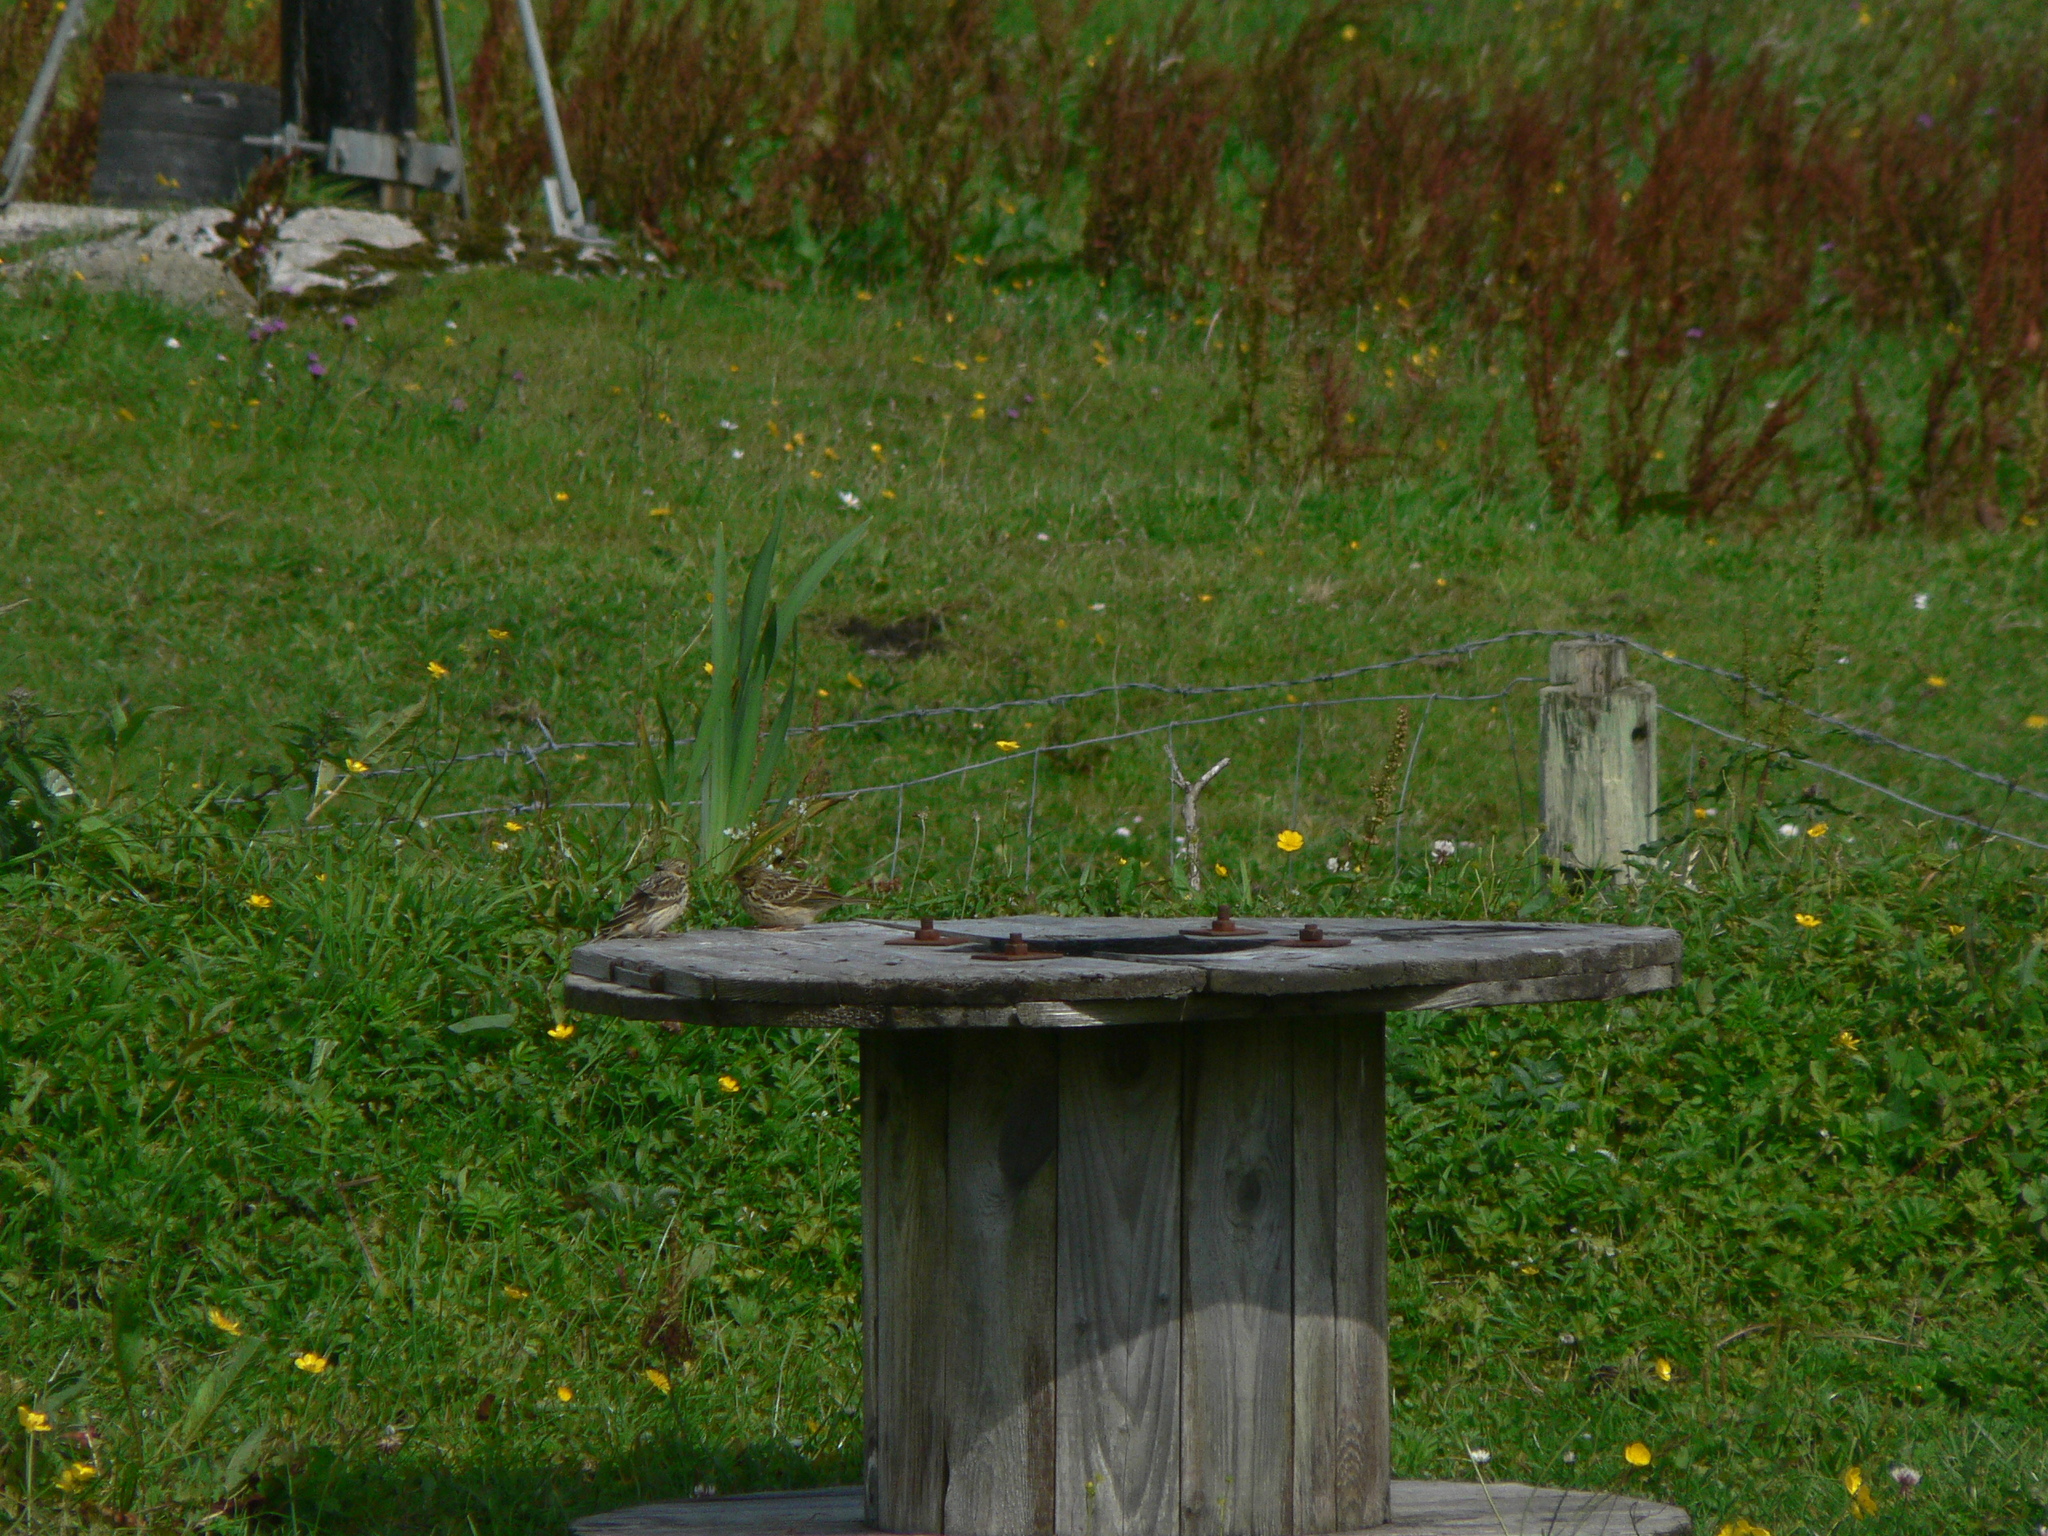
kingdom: Animalia
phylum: Chordata
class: Aves
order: Passeriformes
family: Motacillidae
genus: Anthus
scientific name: Anthus pratensis
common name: Meadow pipit
